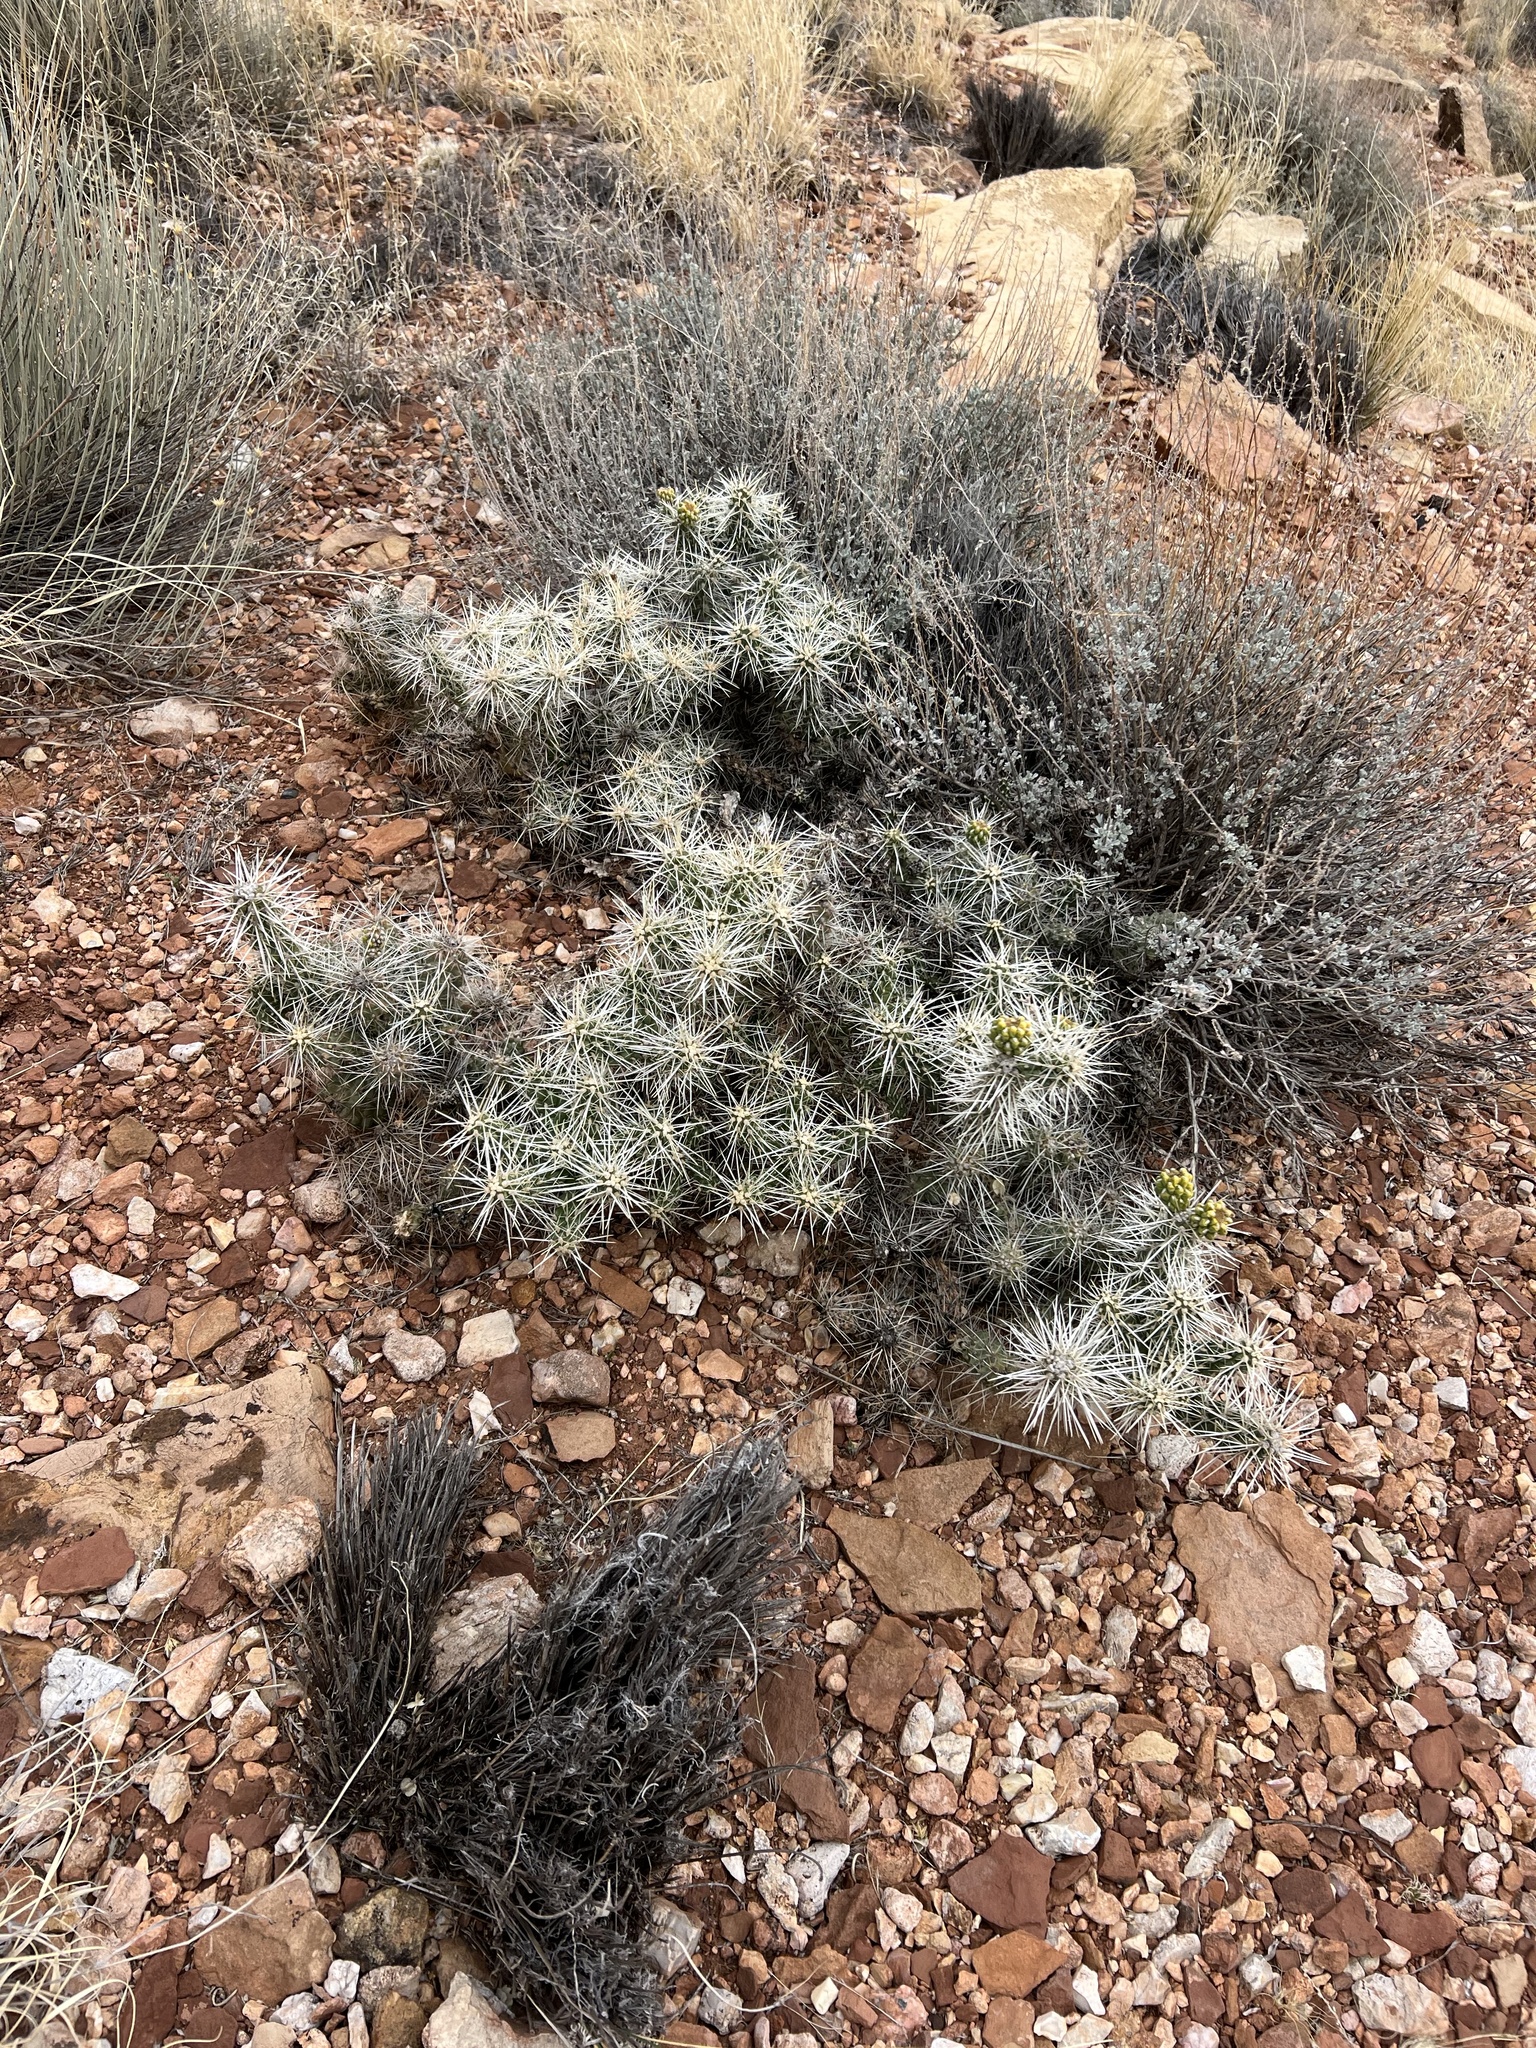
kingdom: Plantae
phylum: Tracheophyta
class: Magnoliopsida
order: Caryophyllales
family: Cactaceae
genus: Cylindropuntia
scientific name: Cylindropuntia whipplei
